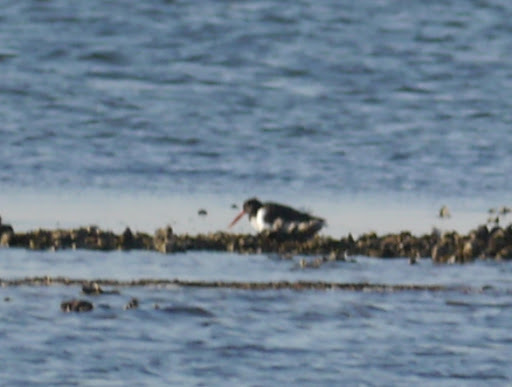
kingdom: Animalia
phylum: Chordata
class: Aves
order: Charadriiformes
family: Haematopodidae
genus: Haematopus
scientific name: Haematopus palliatus
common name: American oystercatcher
